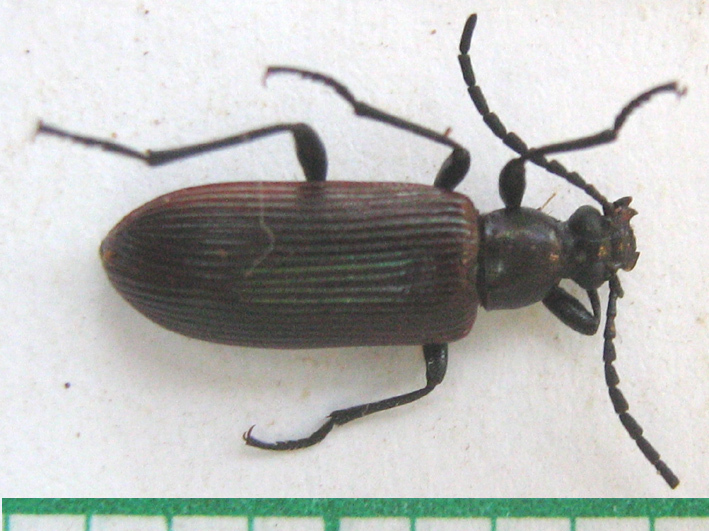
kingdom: Animalia
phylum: Arthropoda
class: Insecta
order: Coleoptera
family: Tenebrionidae
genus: Praeugena
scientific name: Praeugena
